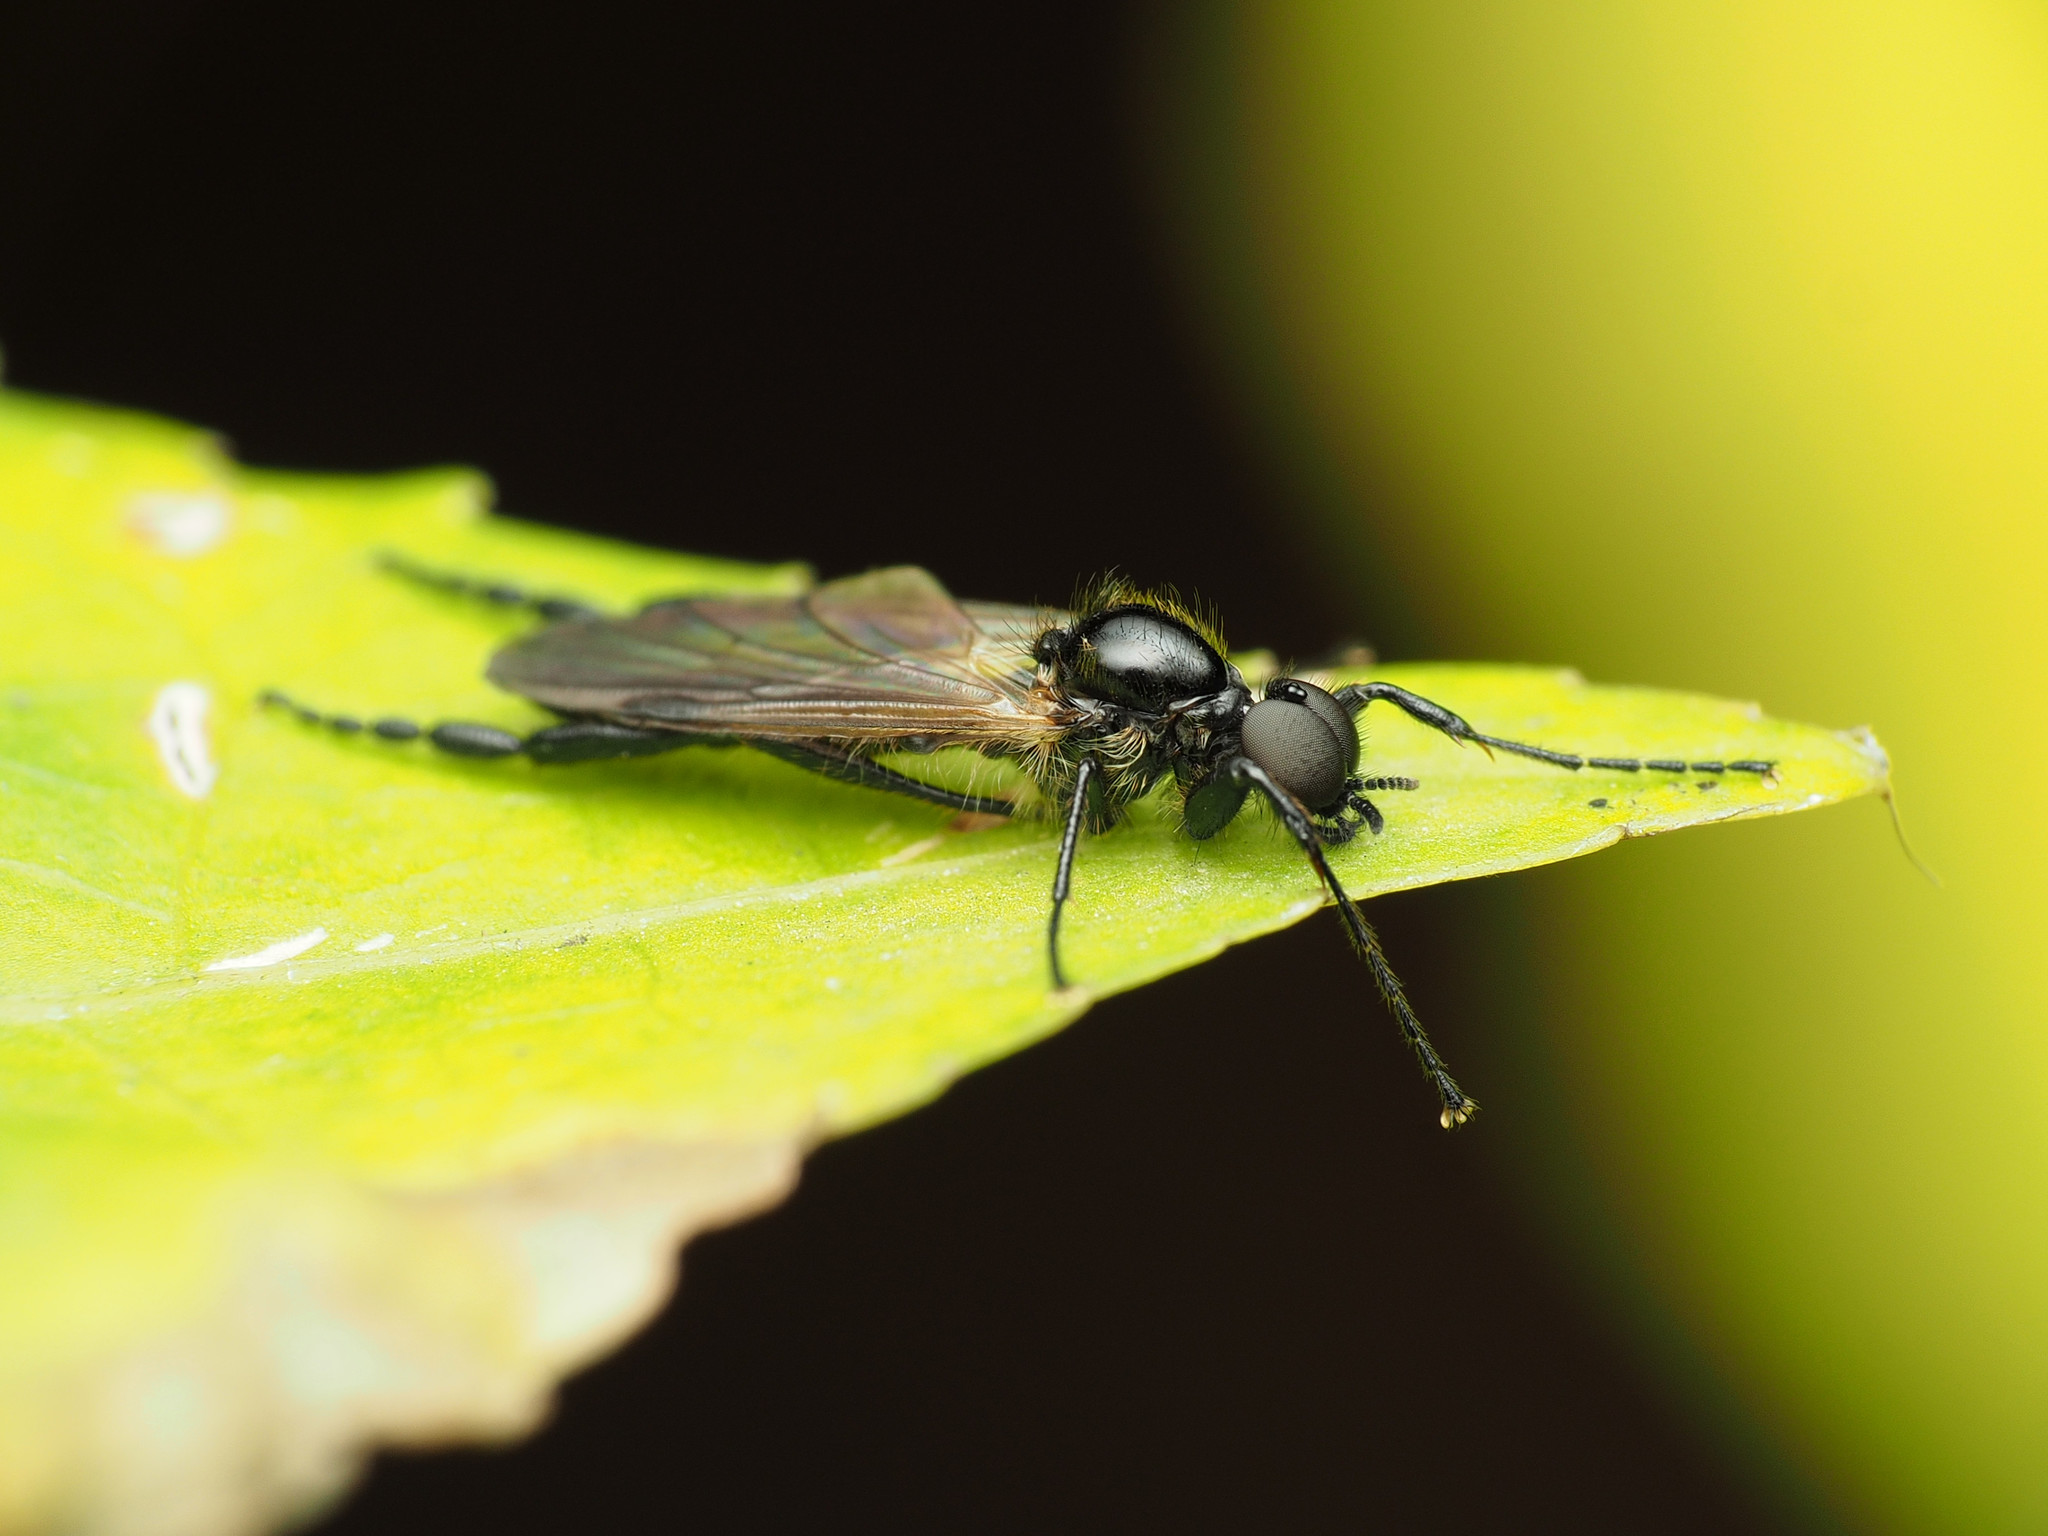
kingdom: Animalia
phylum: Arthropoda
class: Insecta
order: Diptera
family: Bibionidae
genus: Bibio
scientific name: Bibio longipes
